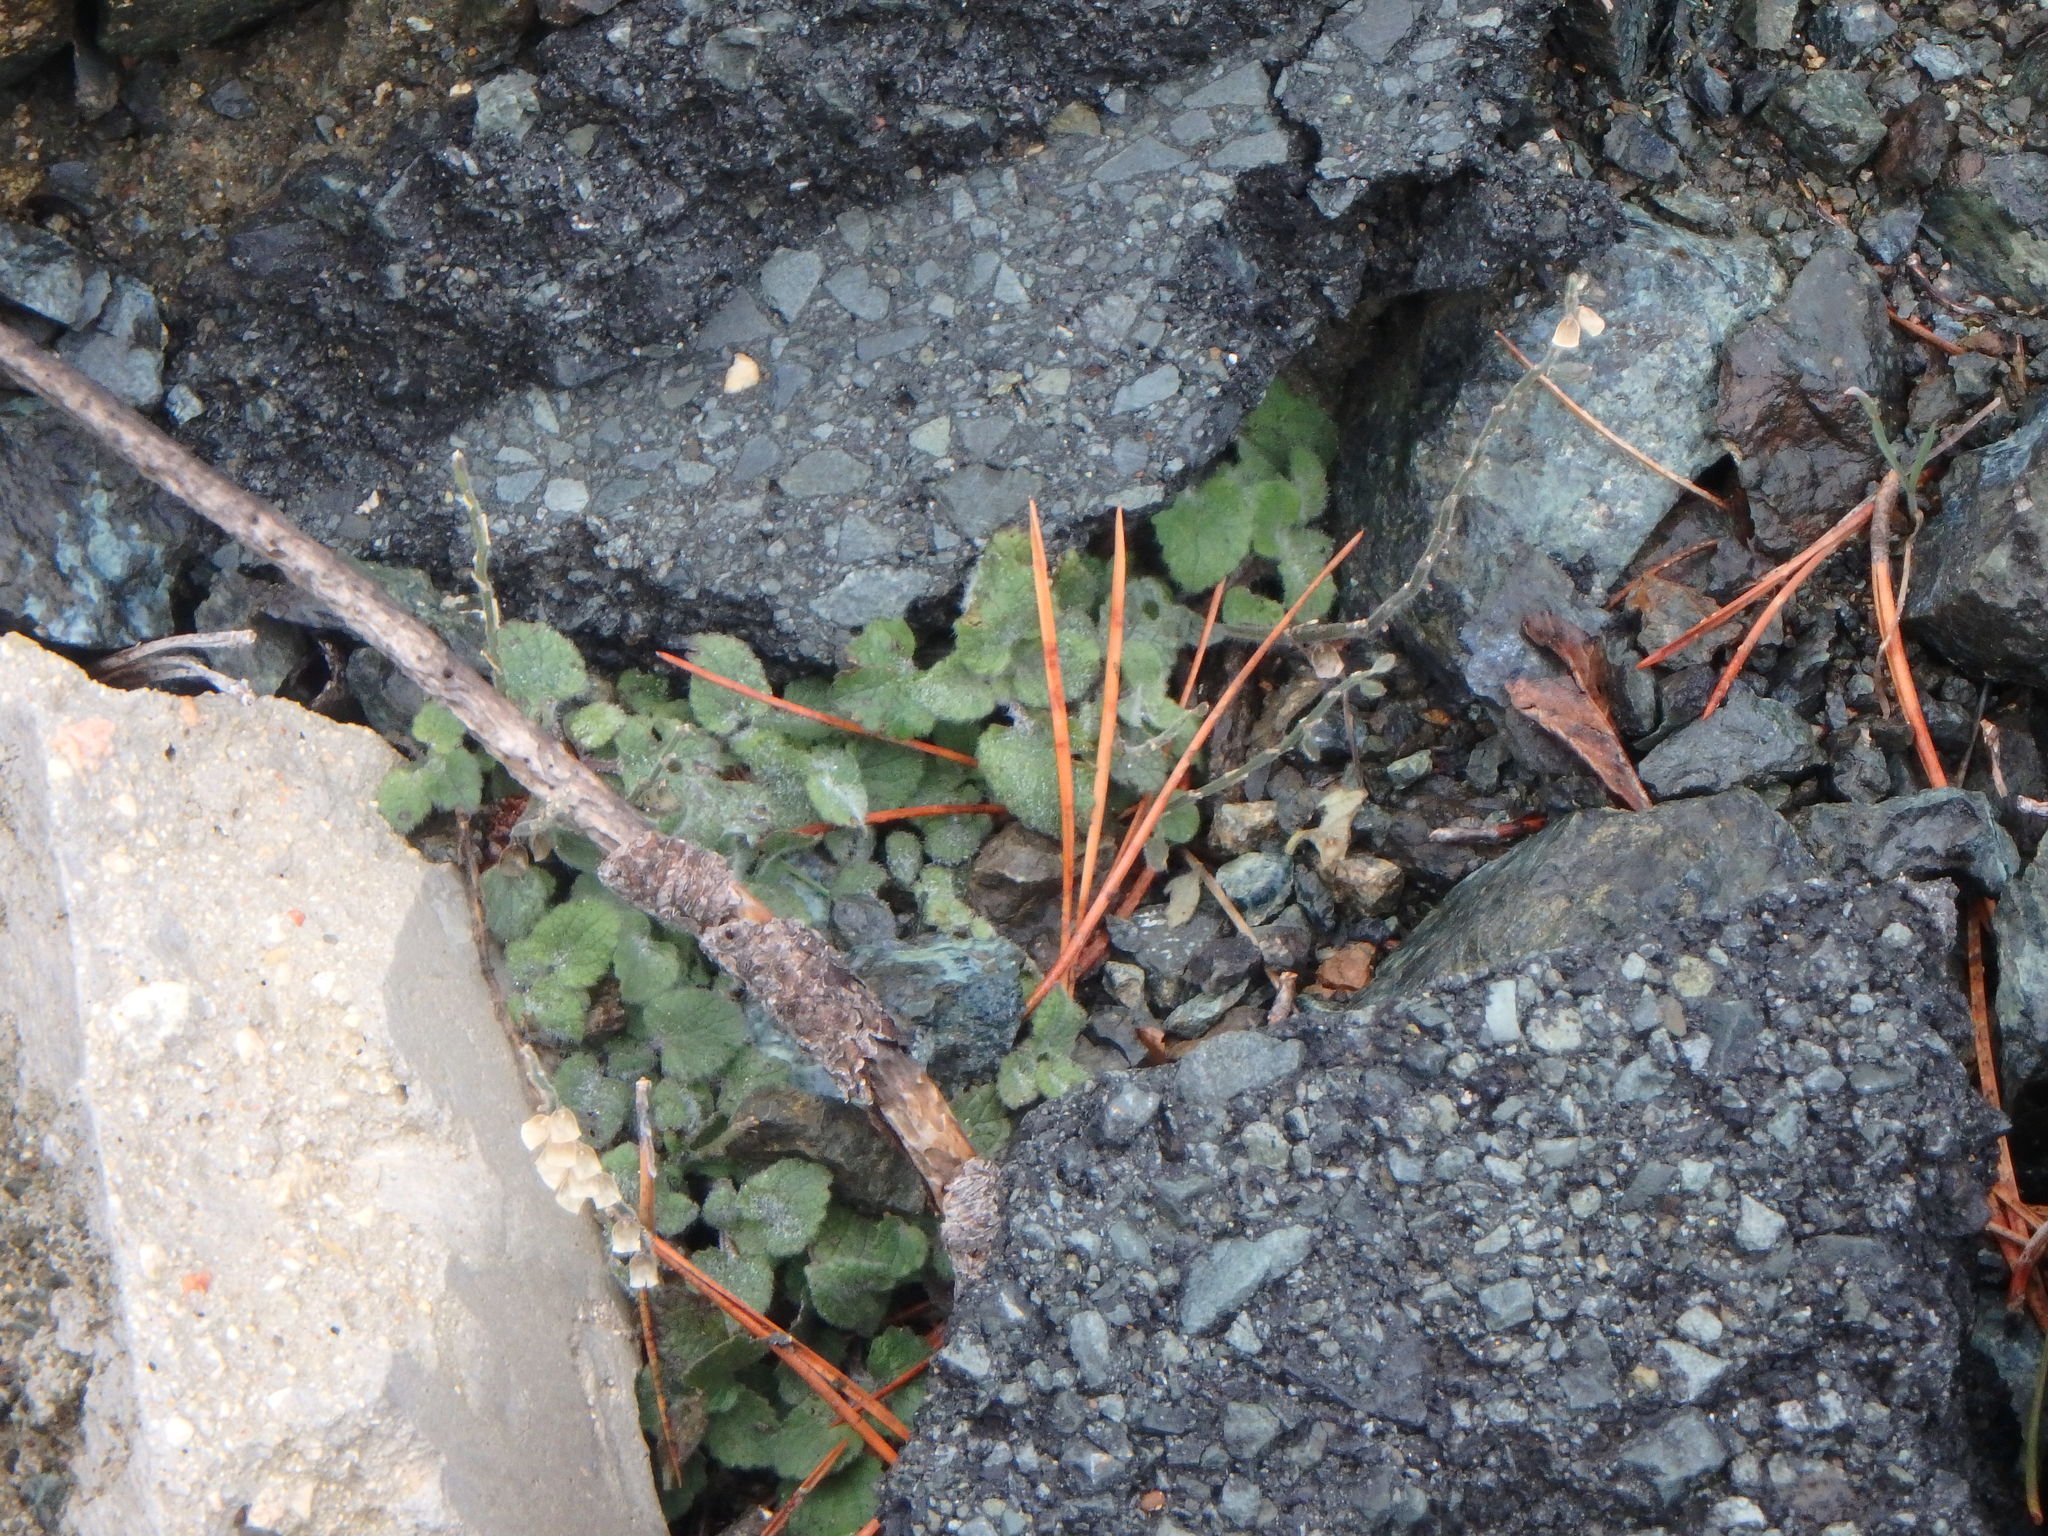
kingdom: Plantae
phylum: Tracheophyta
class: Magnoliopsida
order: Lamiales
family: Lamiaceae
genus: Scutellaria
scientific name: Scutellaria cypria
